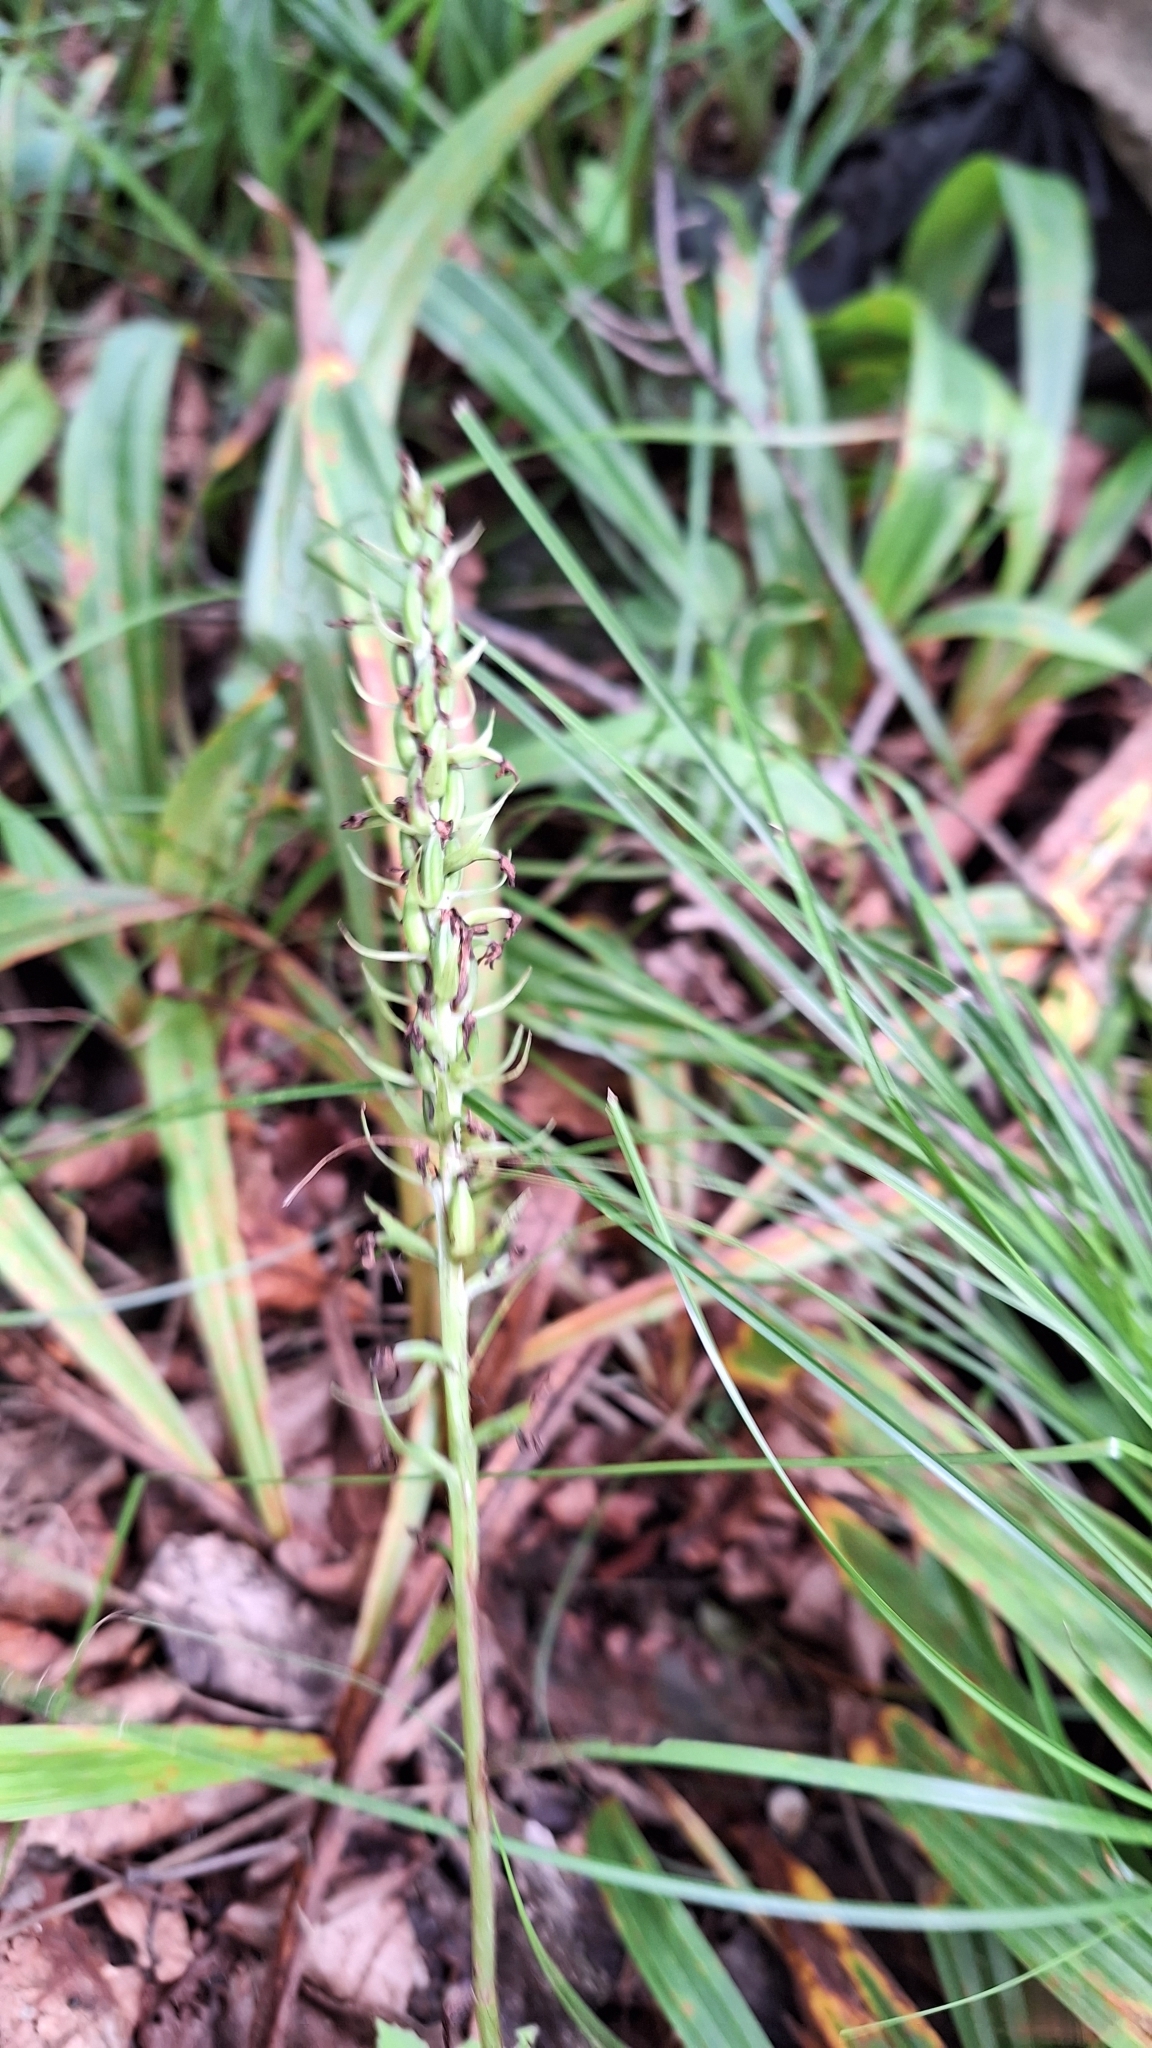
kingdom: Plantae
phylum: Tracheophyta
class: Liliopsida
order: Asparagales
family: Orchidaceae
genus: Platanthera
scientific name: Platanthera fuscescens
